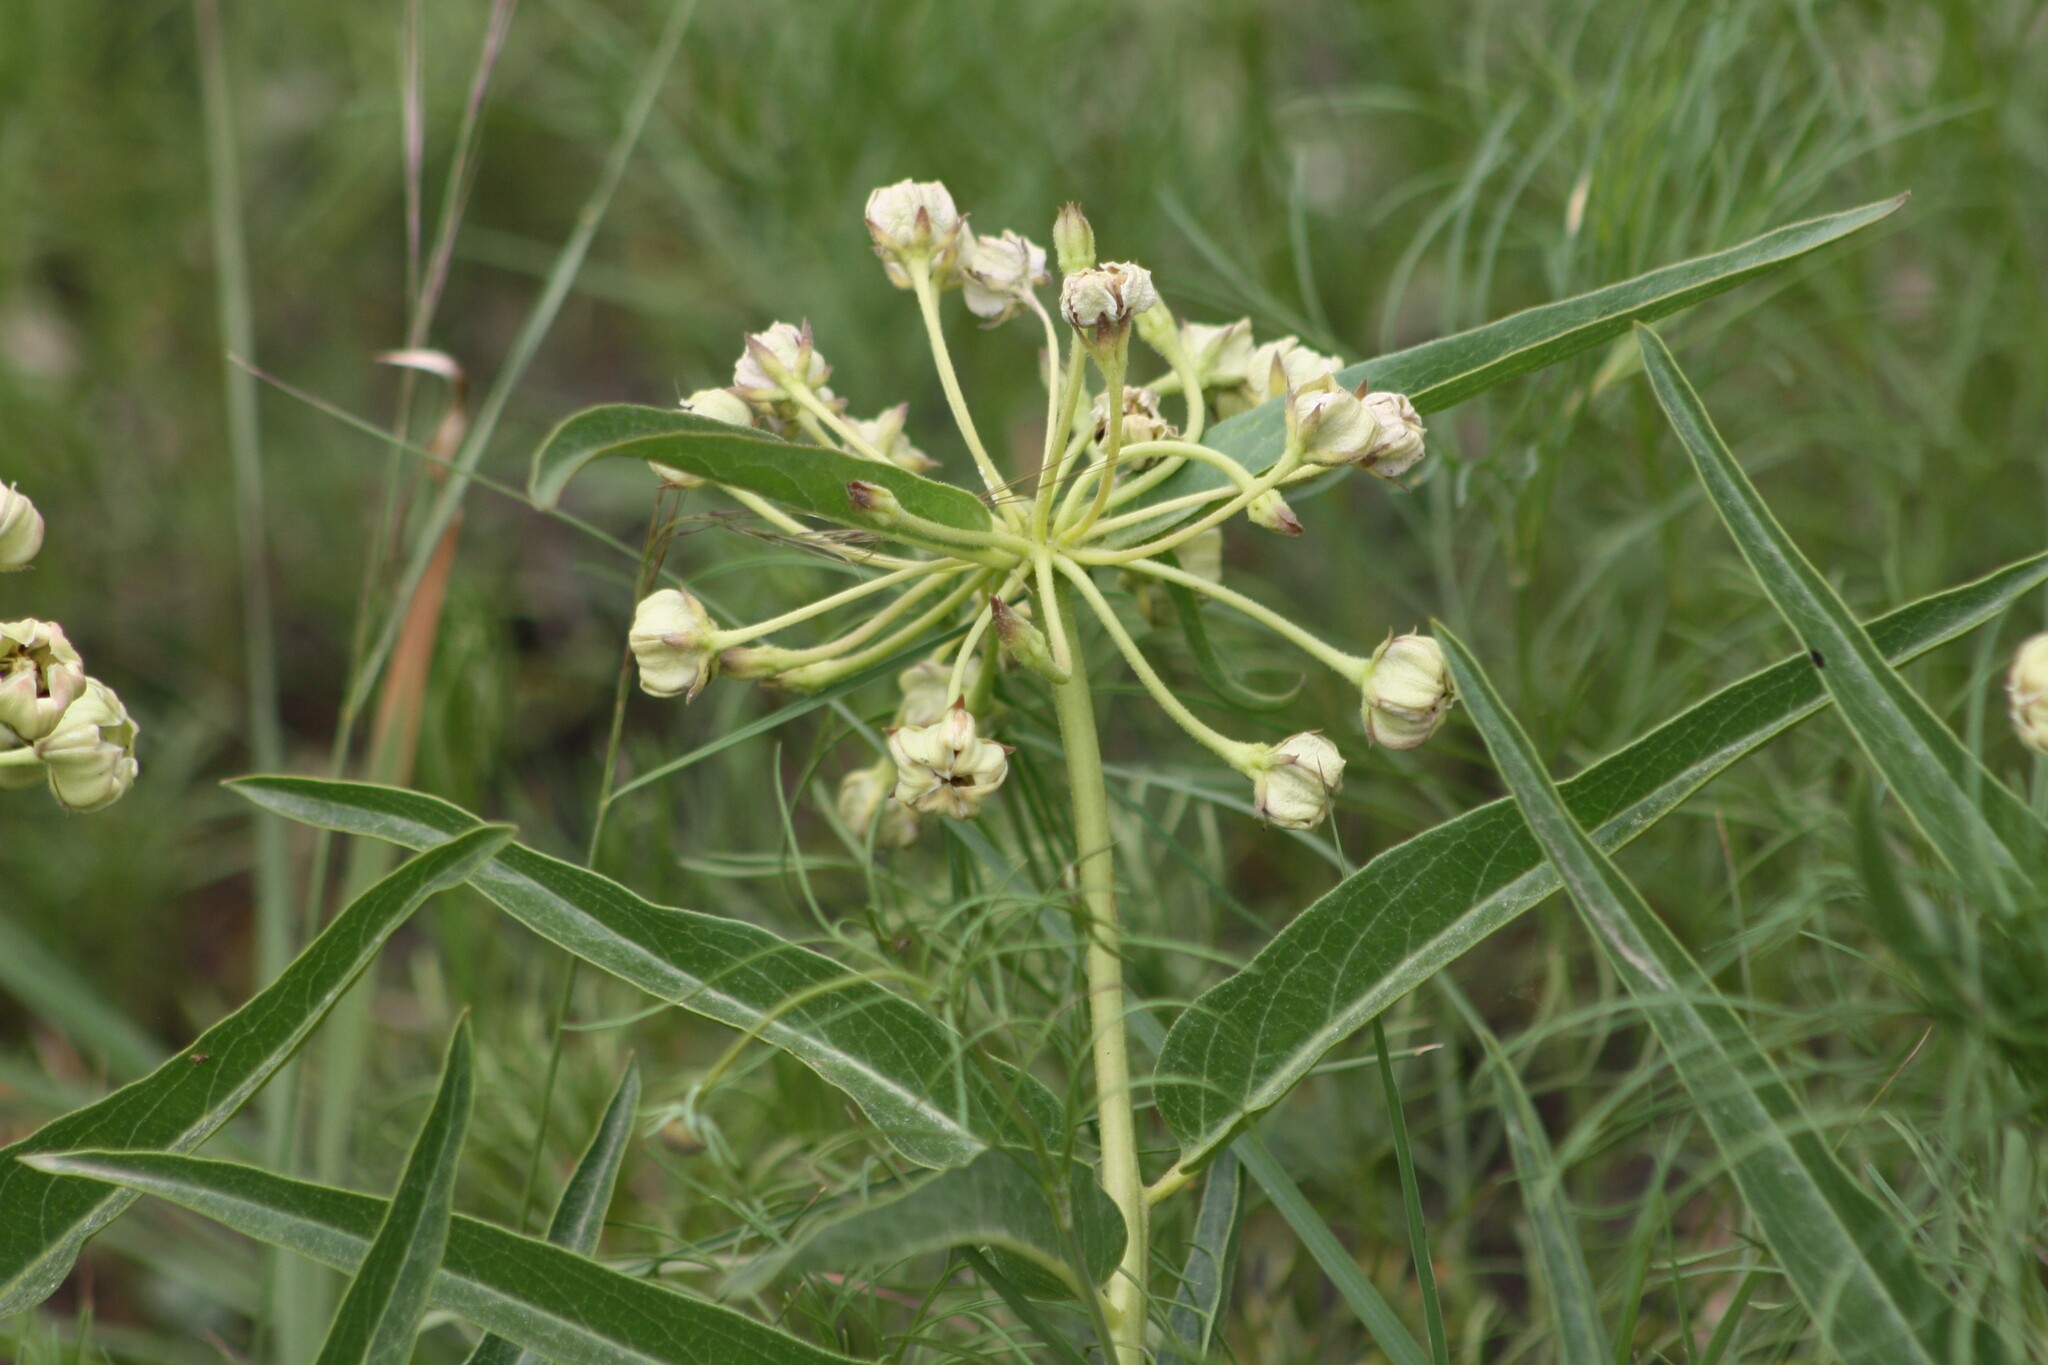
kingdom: Plantae
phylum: Tracheophyta
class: Magnoliopsida
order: Gentianales
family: Apocynaceae
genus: Asclepias
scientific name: Asclepias asperula
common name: Antelope horns
